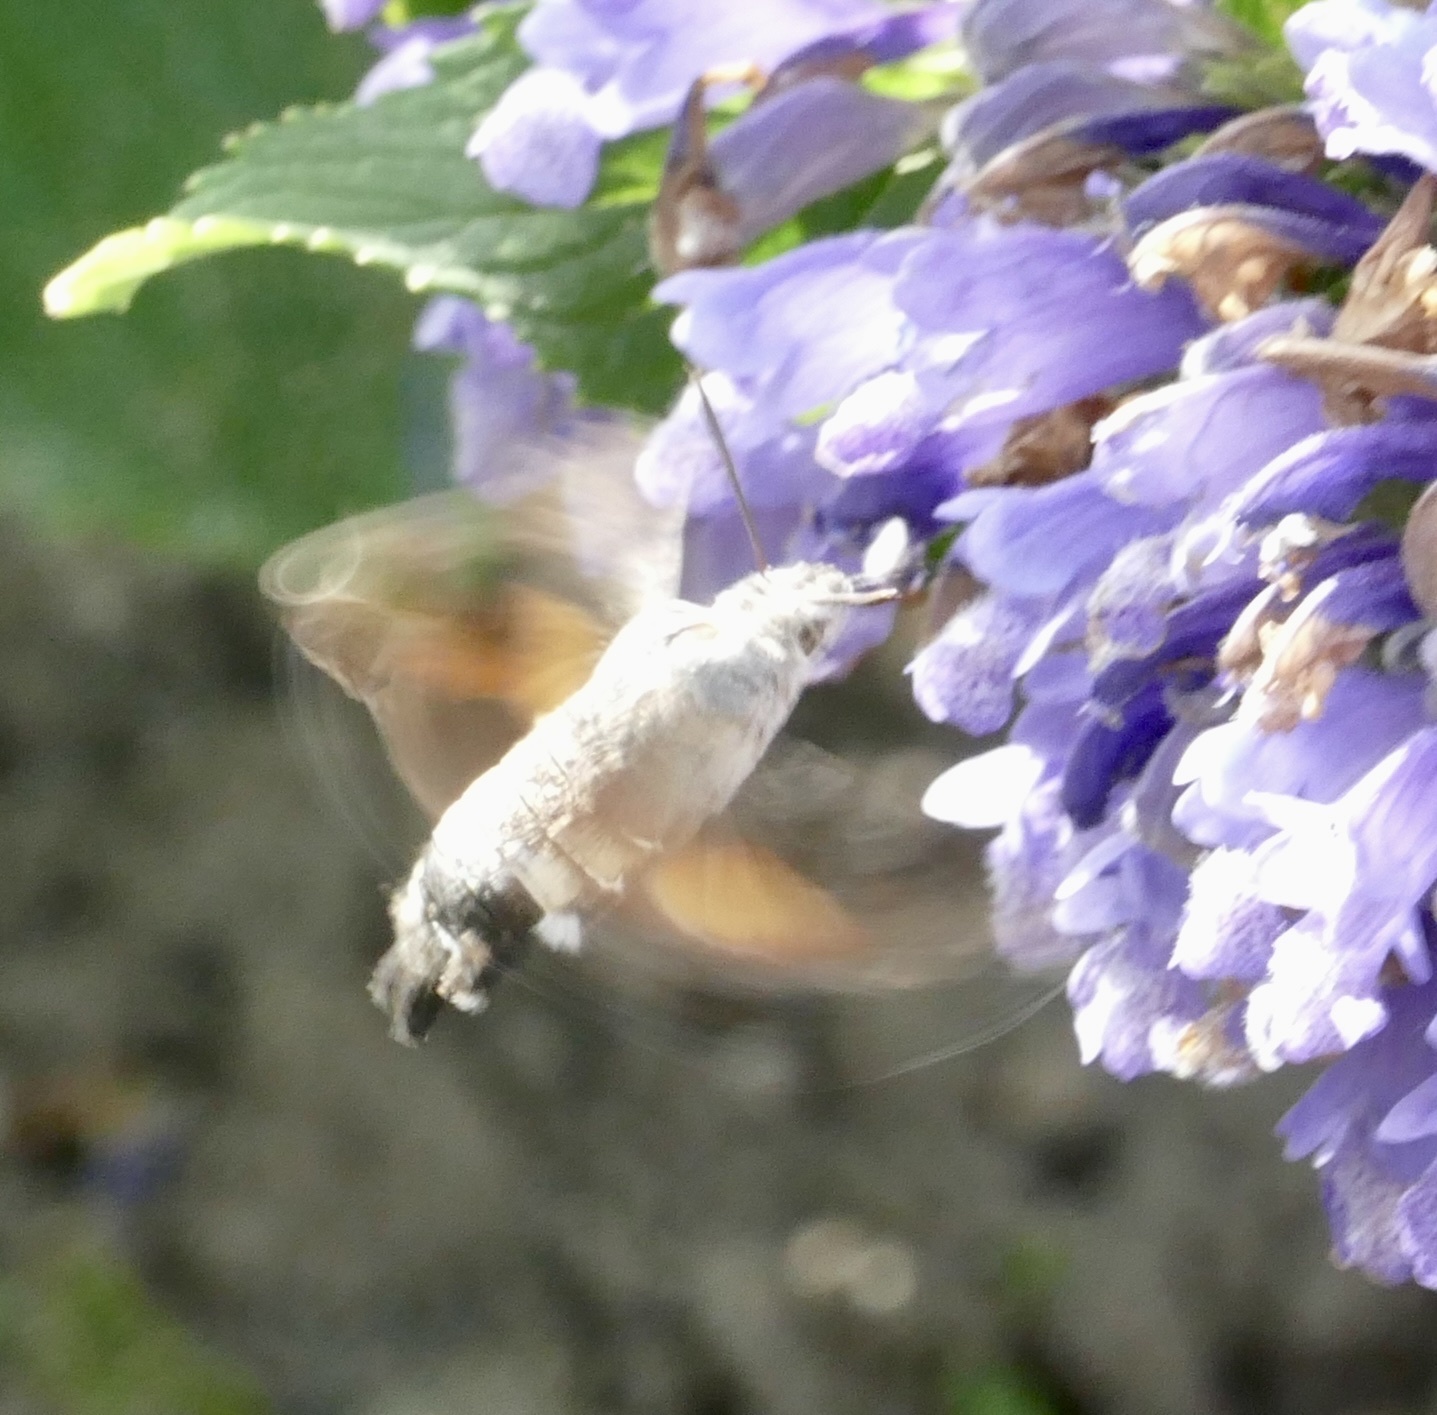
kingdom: Animalia
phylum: Arthropoda
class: Insecta
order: Lepidoptera
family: Sphingidae
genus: Macroglossum
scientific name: Macroglossum stellatarum
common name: Humming-bird hawk-moth
